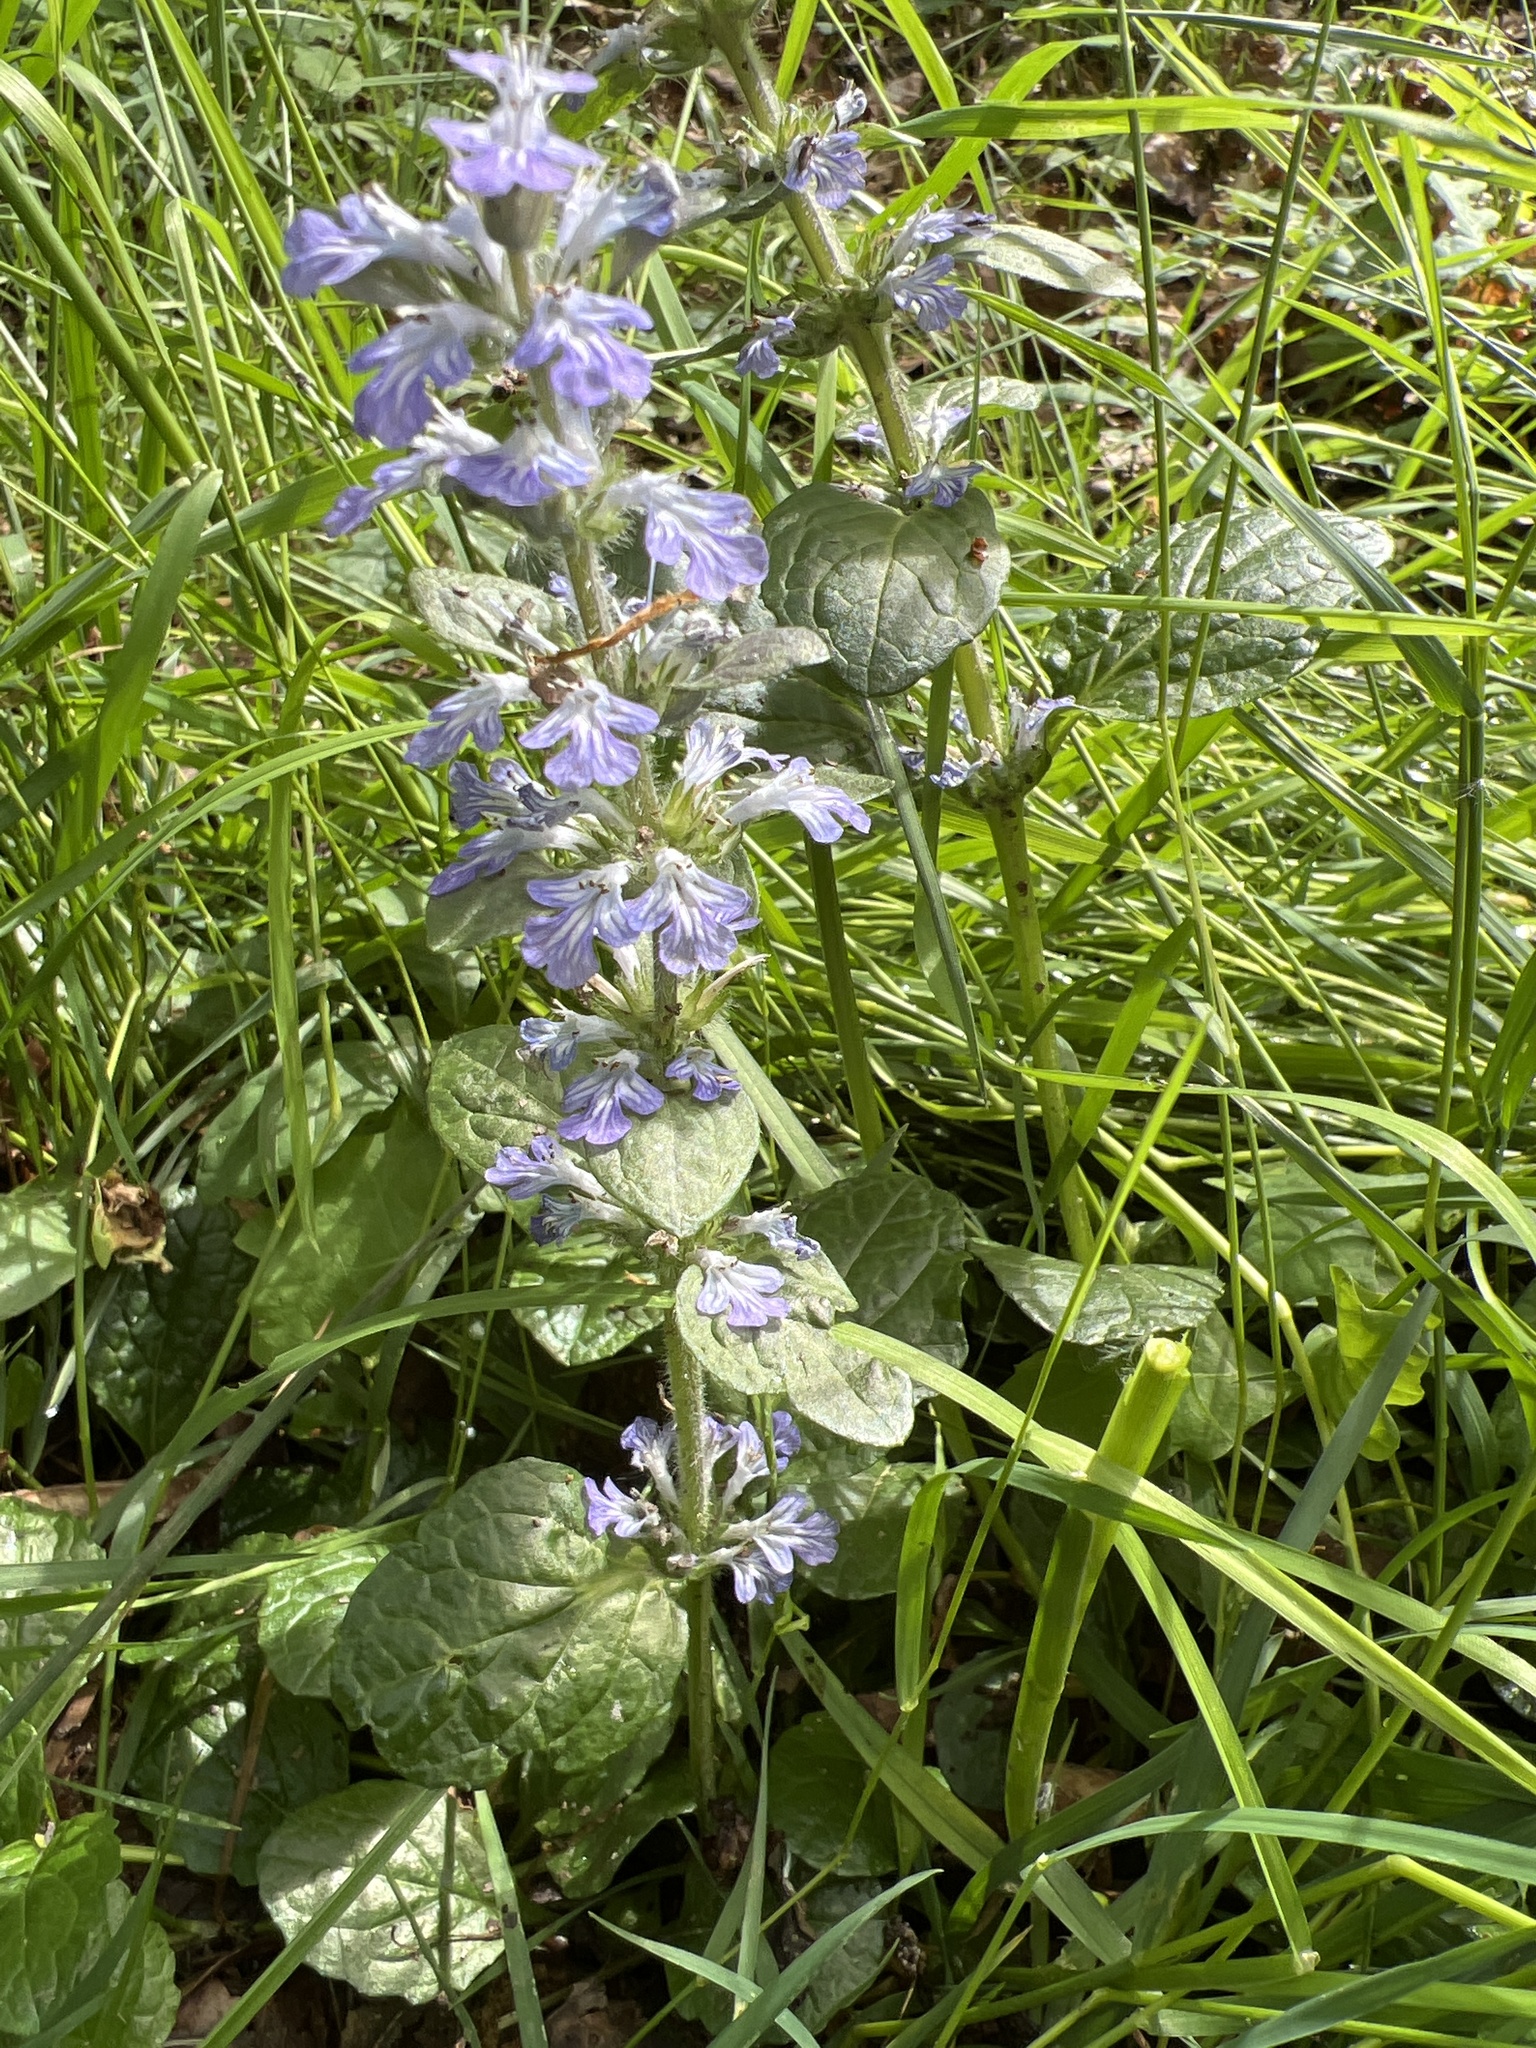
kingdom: Plantae
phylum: Tracheophyta
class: Magnoliopsida
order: Lamiales
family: Lamiaceae
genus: Ajuga
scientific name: Ajuga reptans
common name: Bugle
